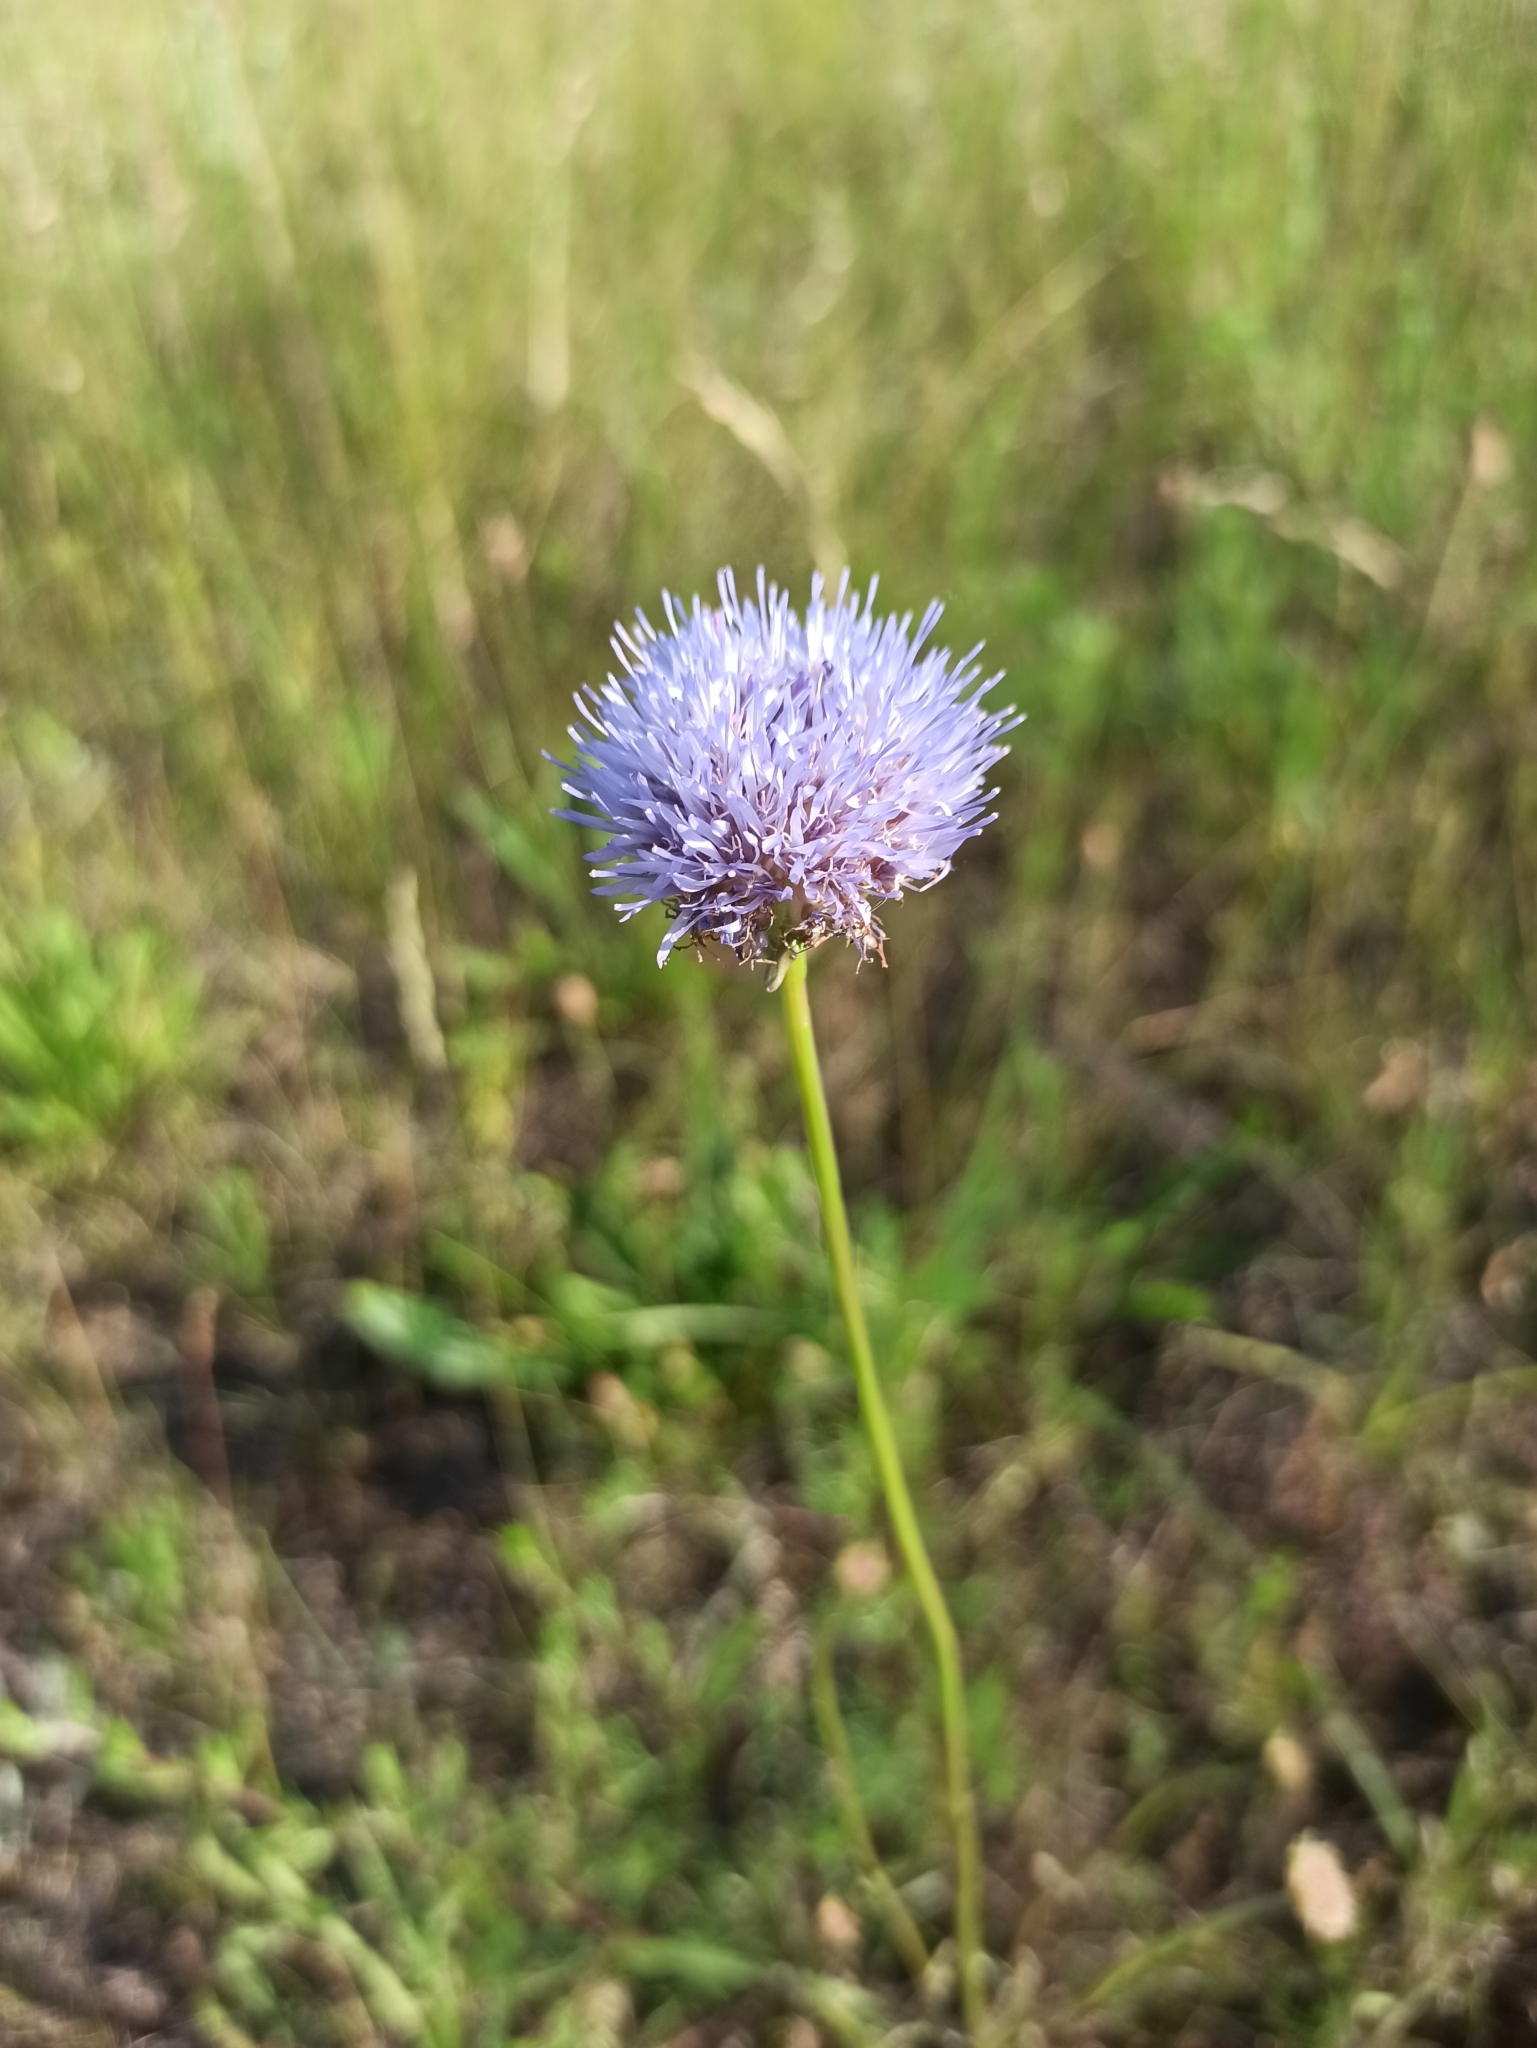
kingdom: Plantae
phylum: Tracheophyta
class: Magnoliopsida
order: Asterales
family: Campanulaceae
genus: Jasione
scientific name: Jasione montana
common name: Sheep's-bit
